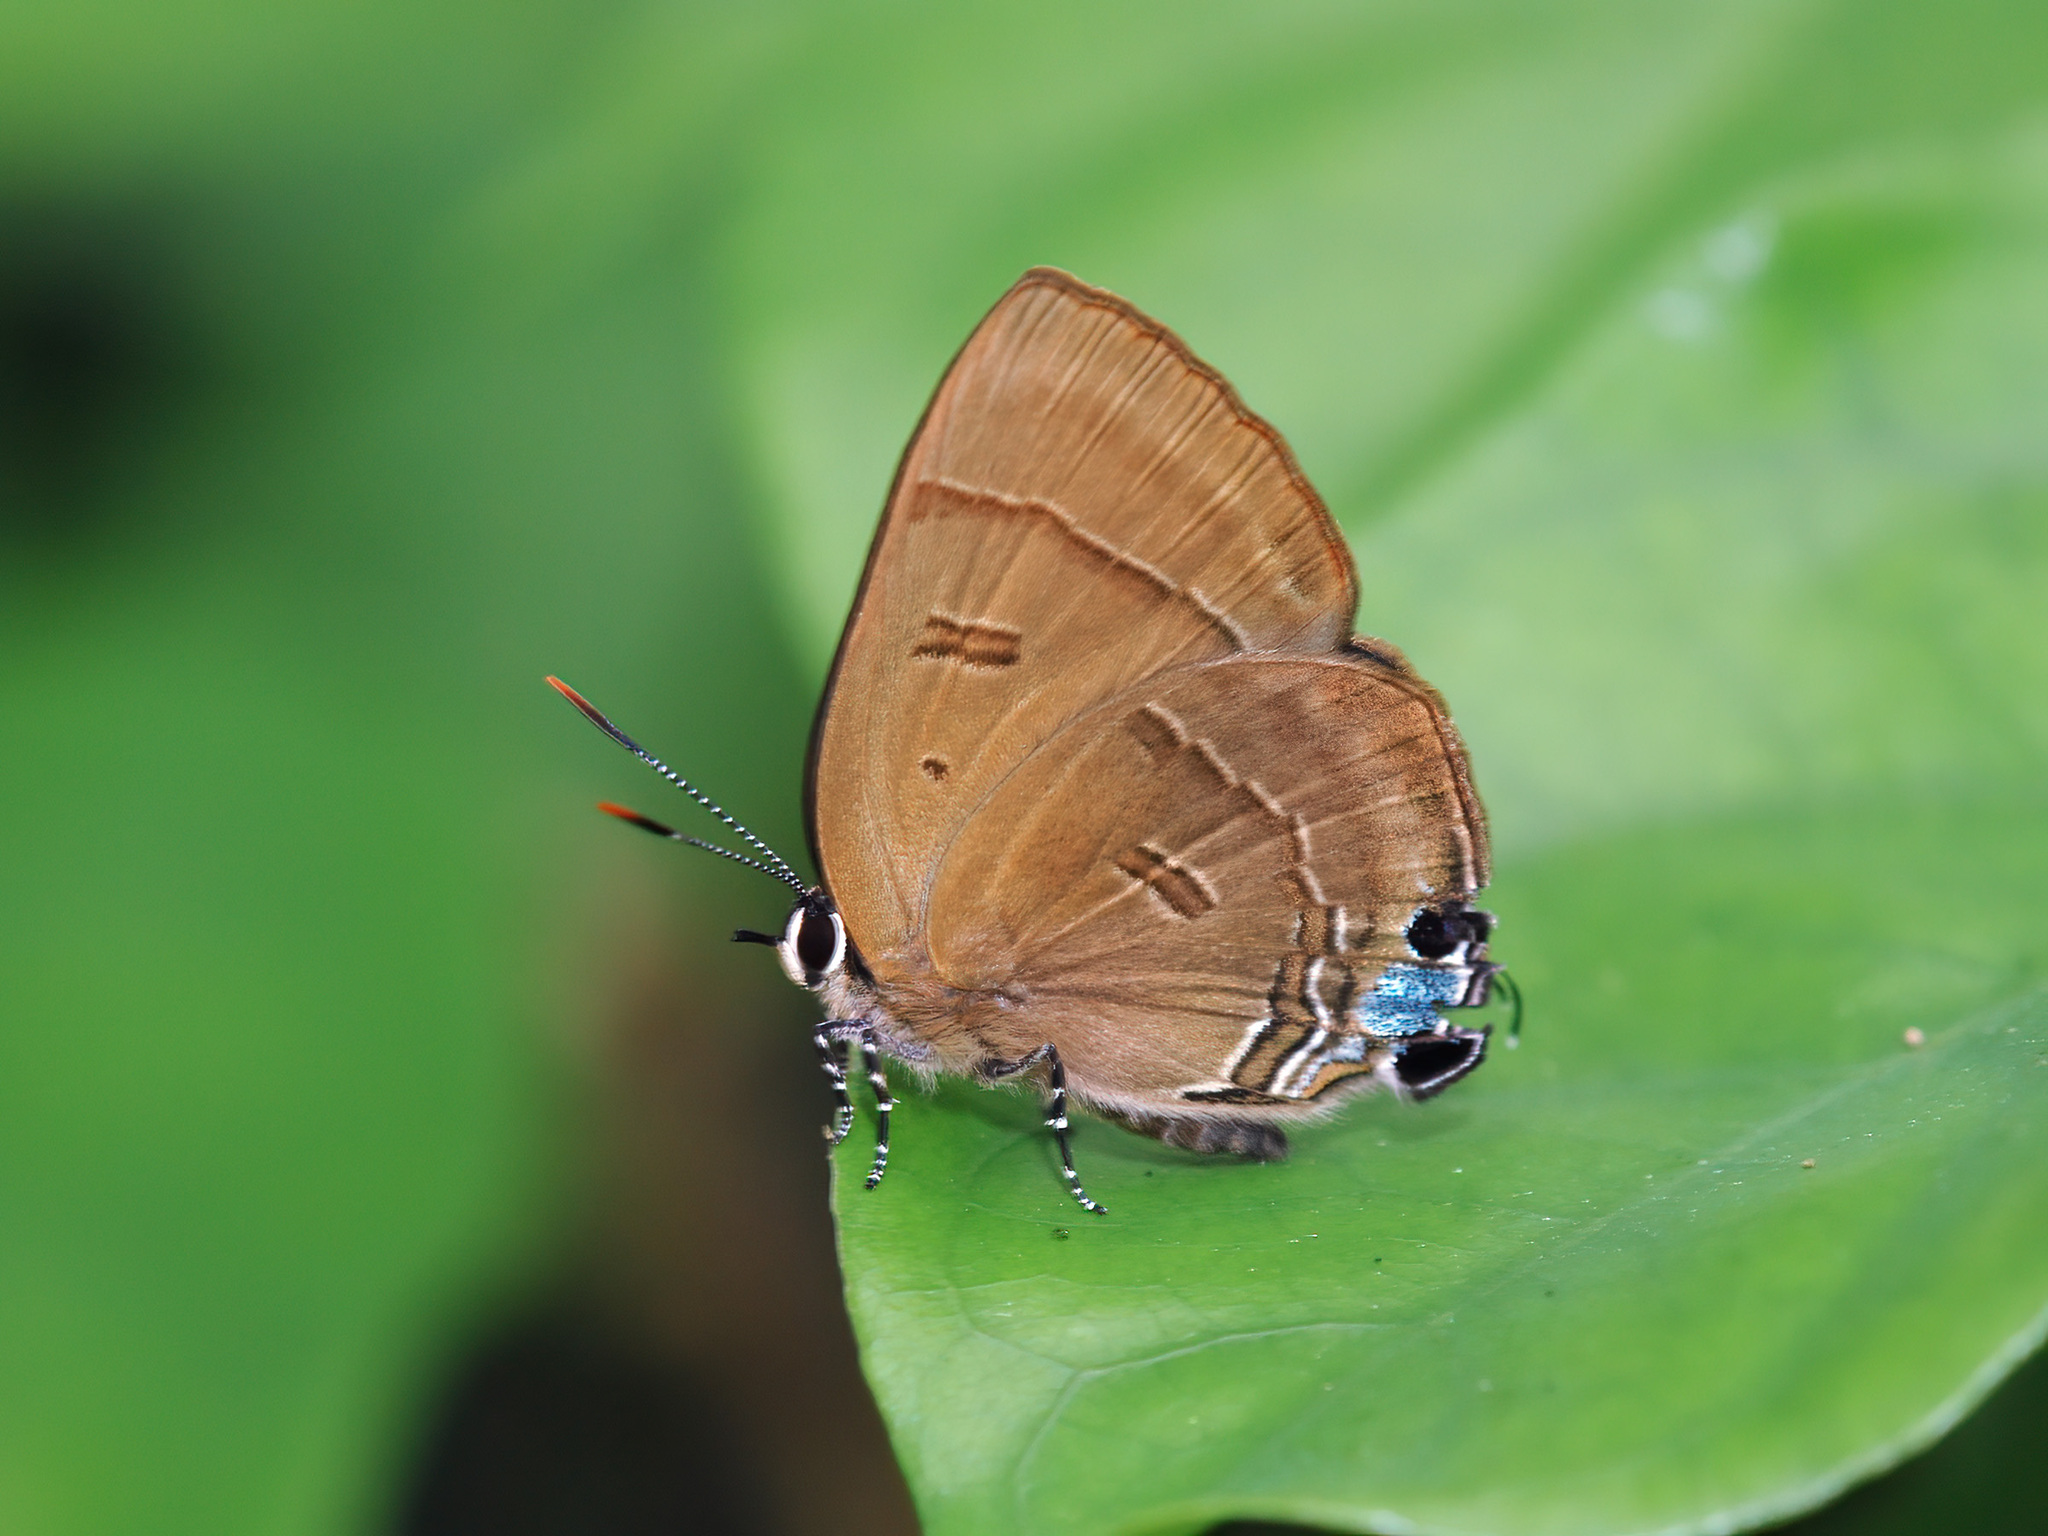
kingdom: Animalia
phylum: Arthropoda
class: Insecta
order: Lepidoptera
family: Lycaenidae
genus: Rapala
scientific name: Rapala pheretima
